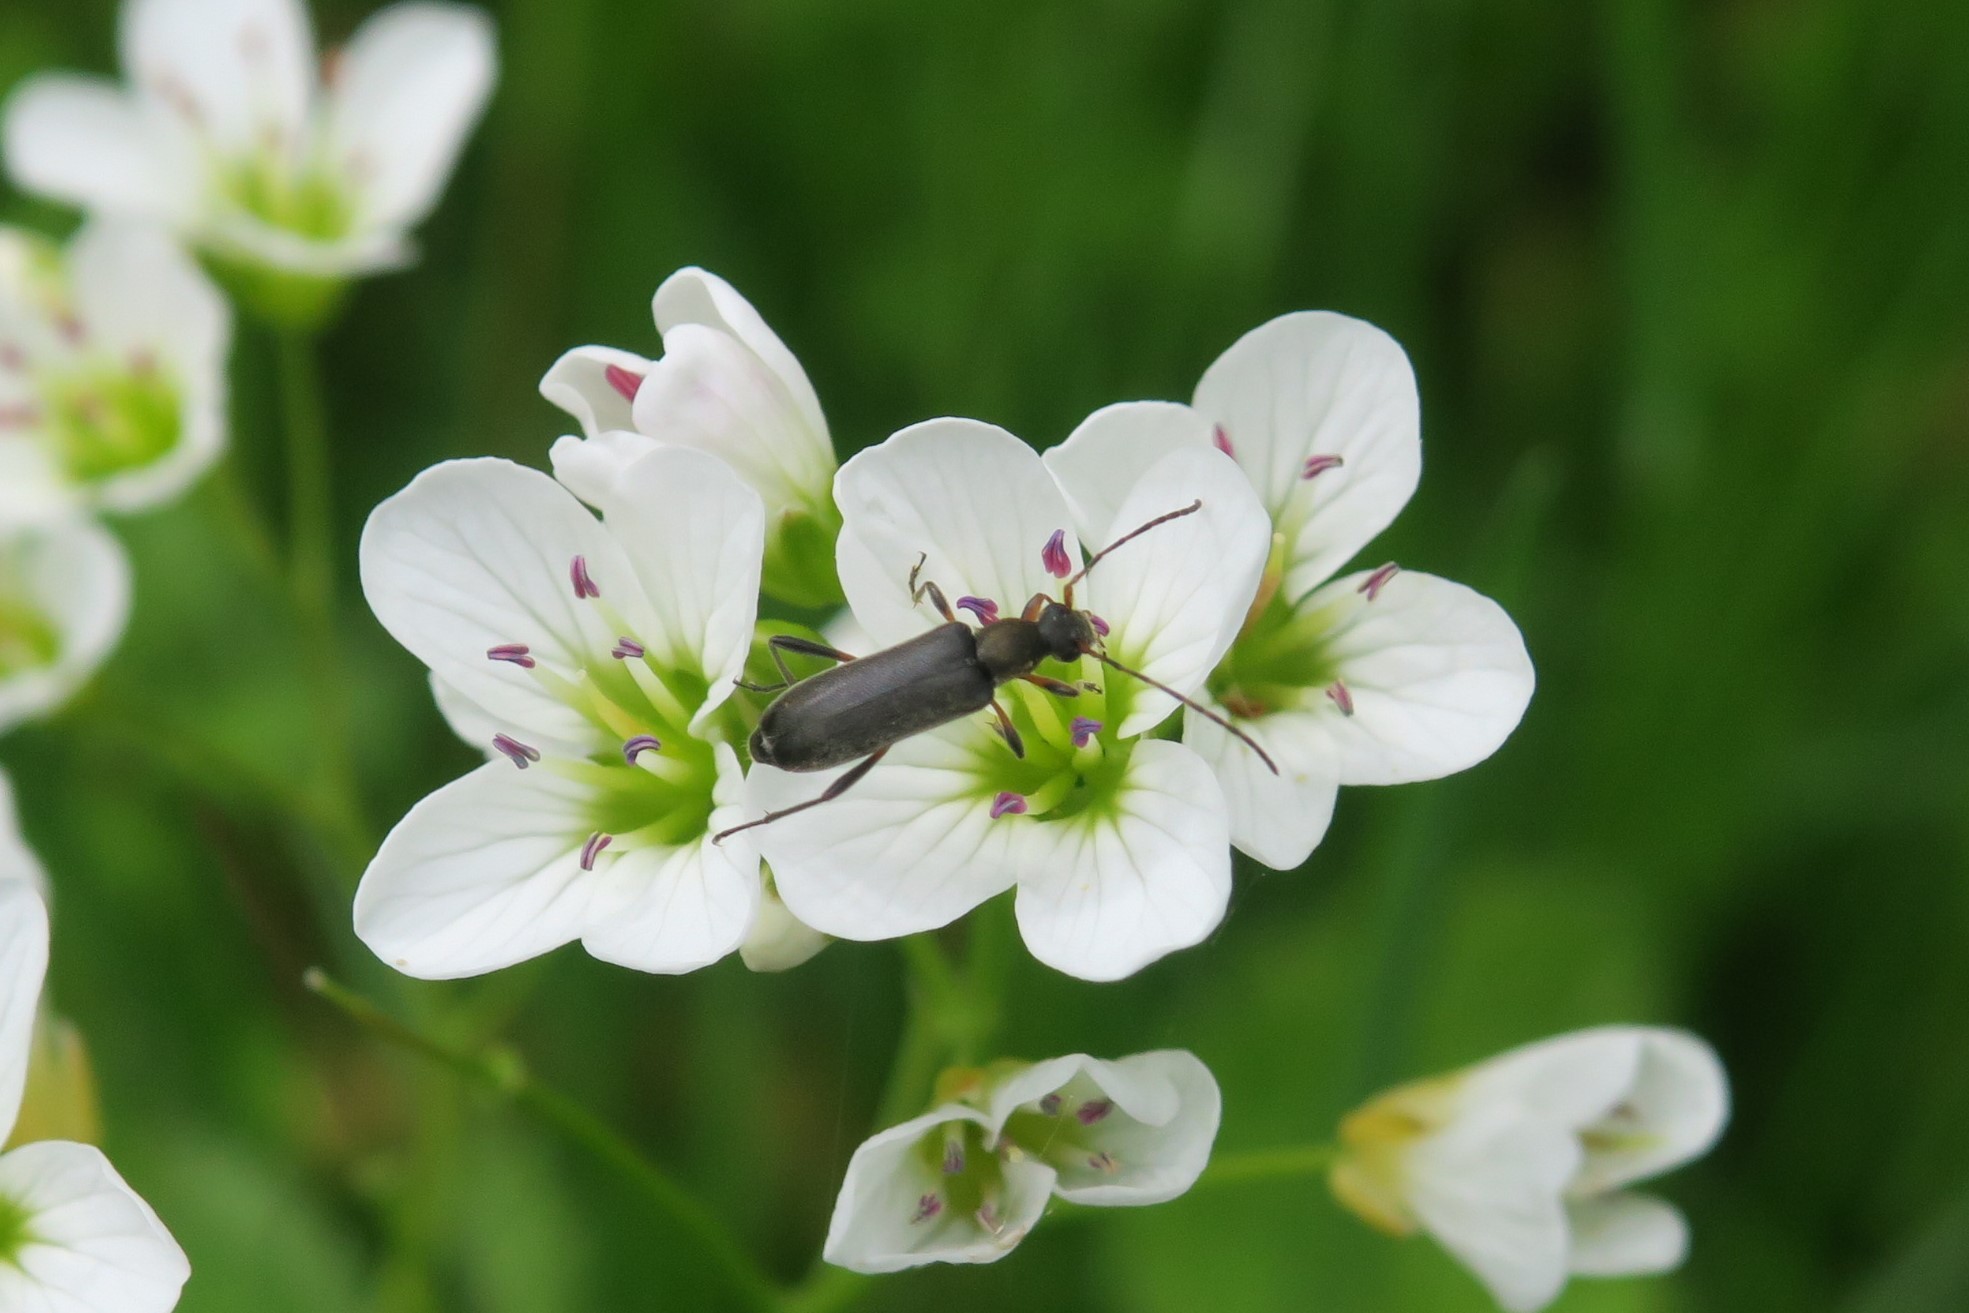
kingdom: Animalia
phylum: Arthropoda
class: Insecta
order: Coleoptera
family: Cerambycidae
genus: Grammoptera
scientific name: Grammoptera ruficornis
